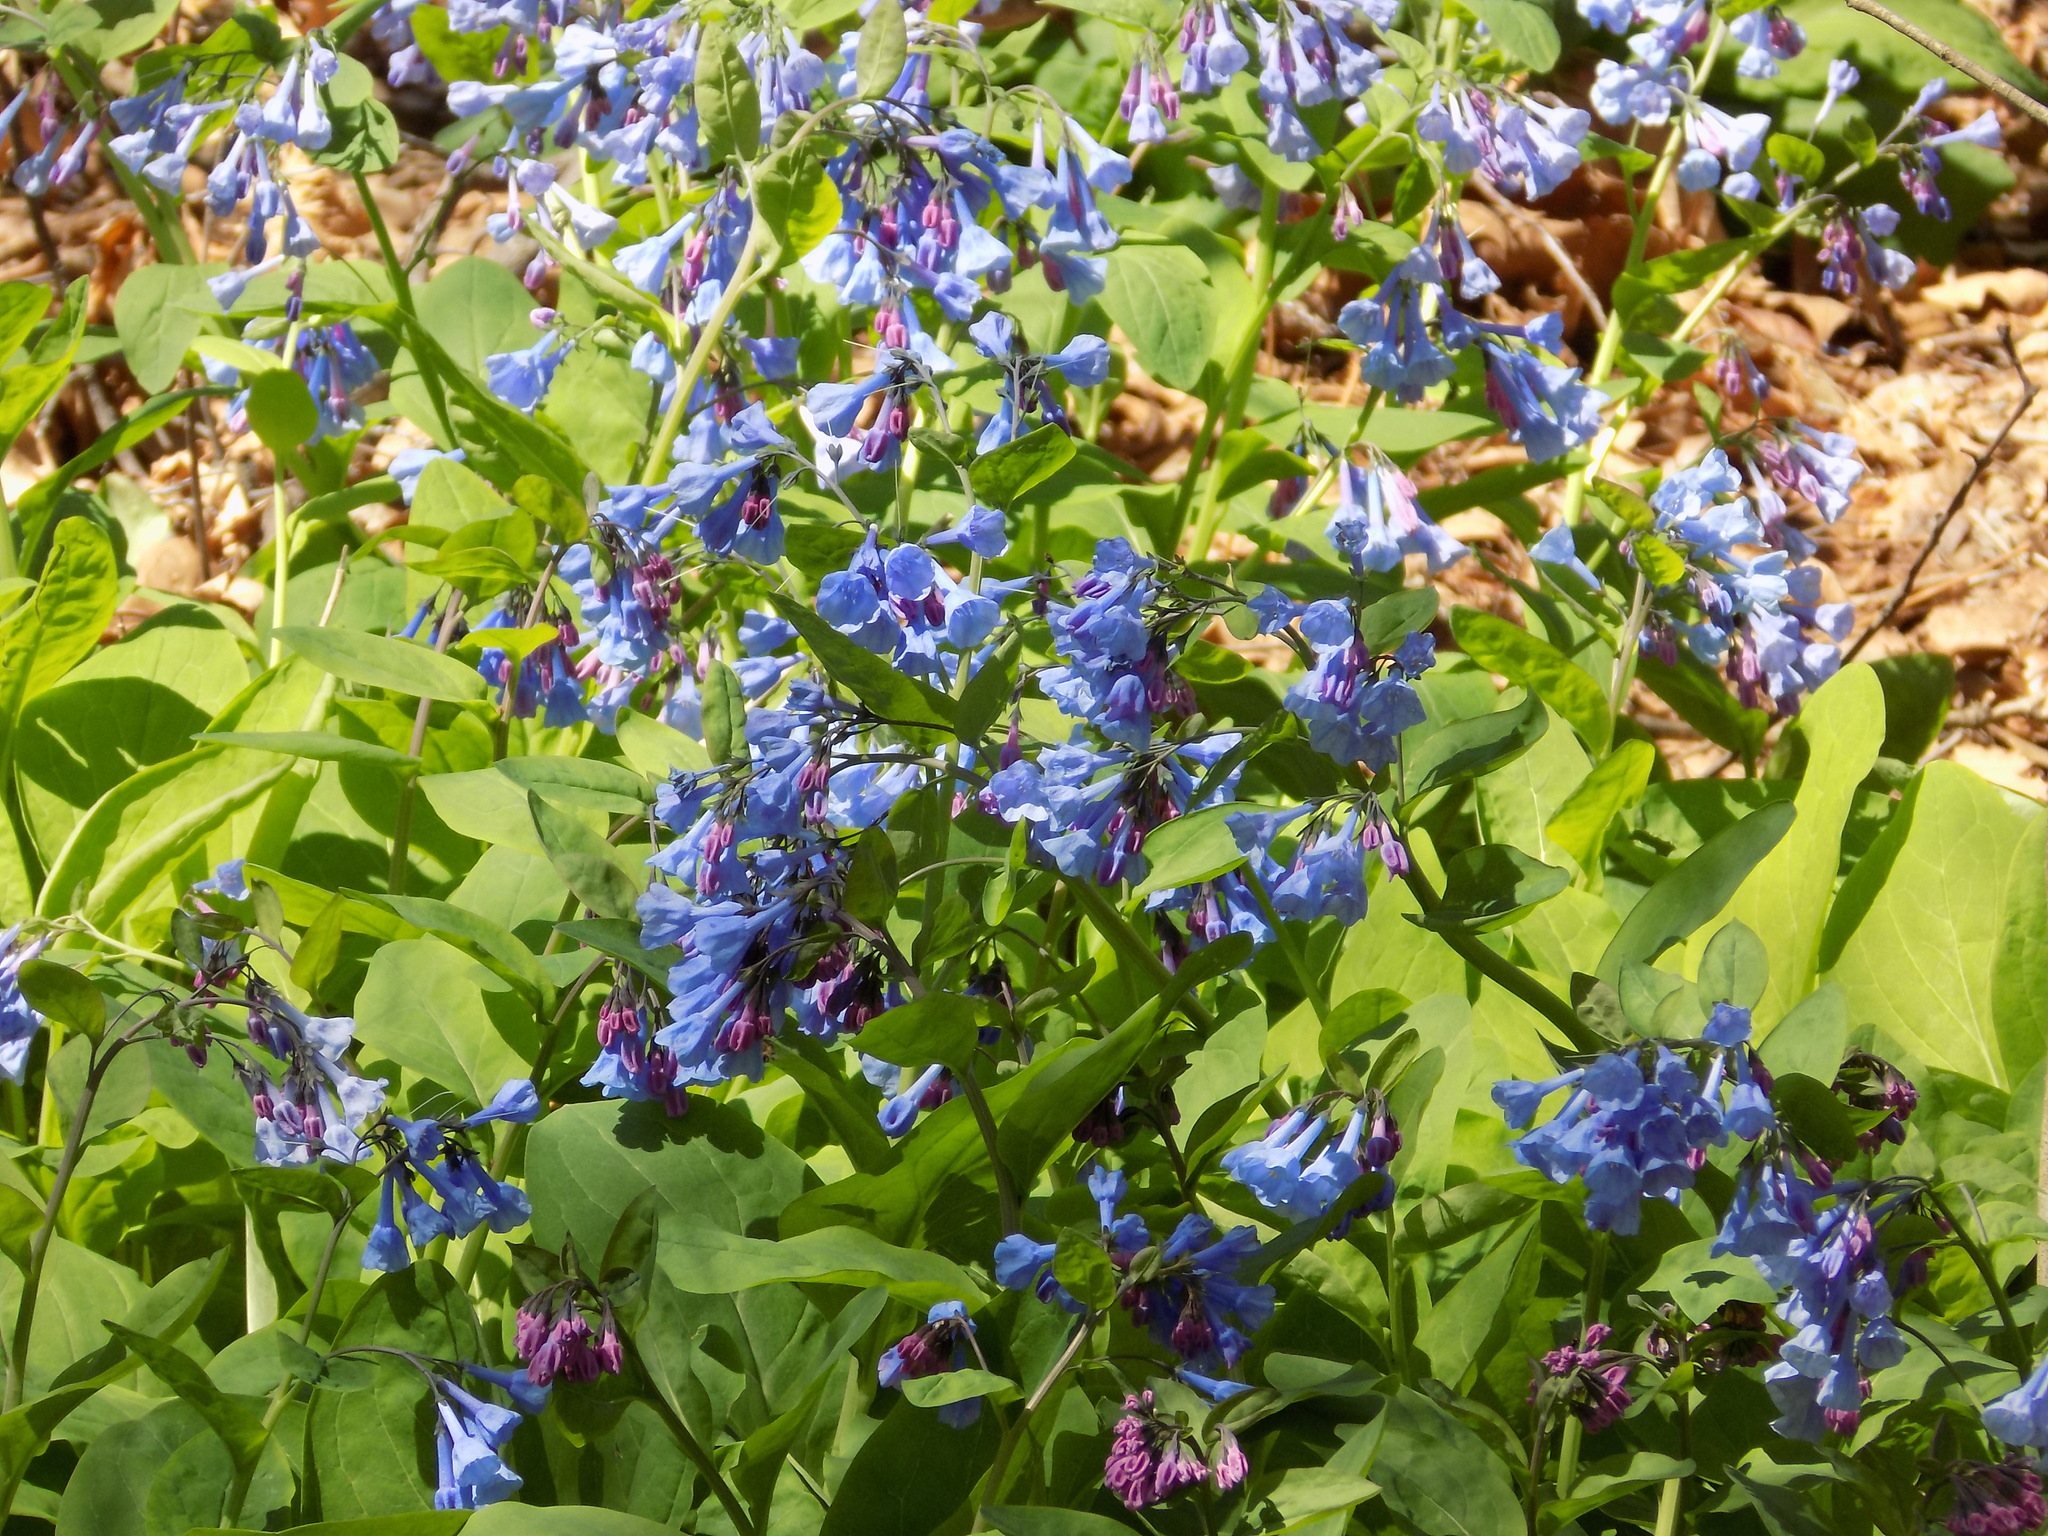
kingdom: Plantae
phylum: Tracheophyta
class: Magnoliopsida
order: Boraginales
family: Boraginaceae
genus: Mertensia
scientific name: Mertensia virginica
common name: Virginia bluebells
